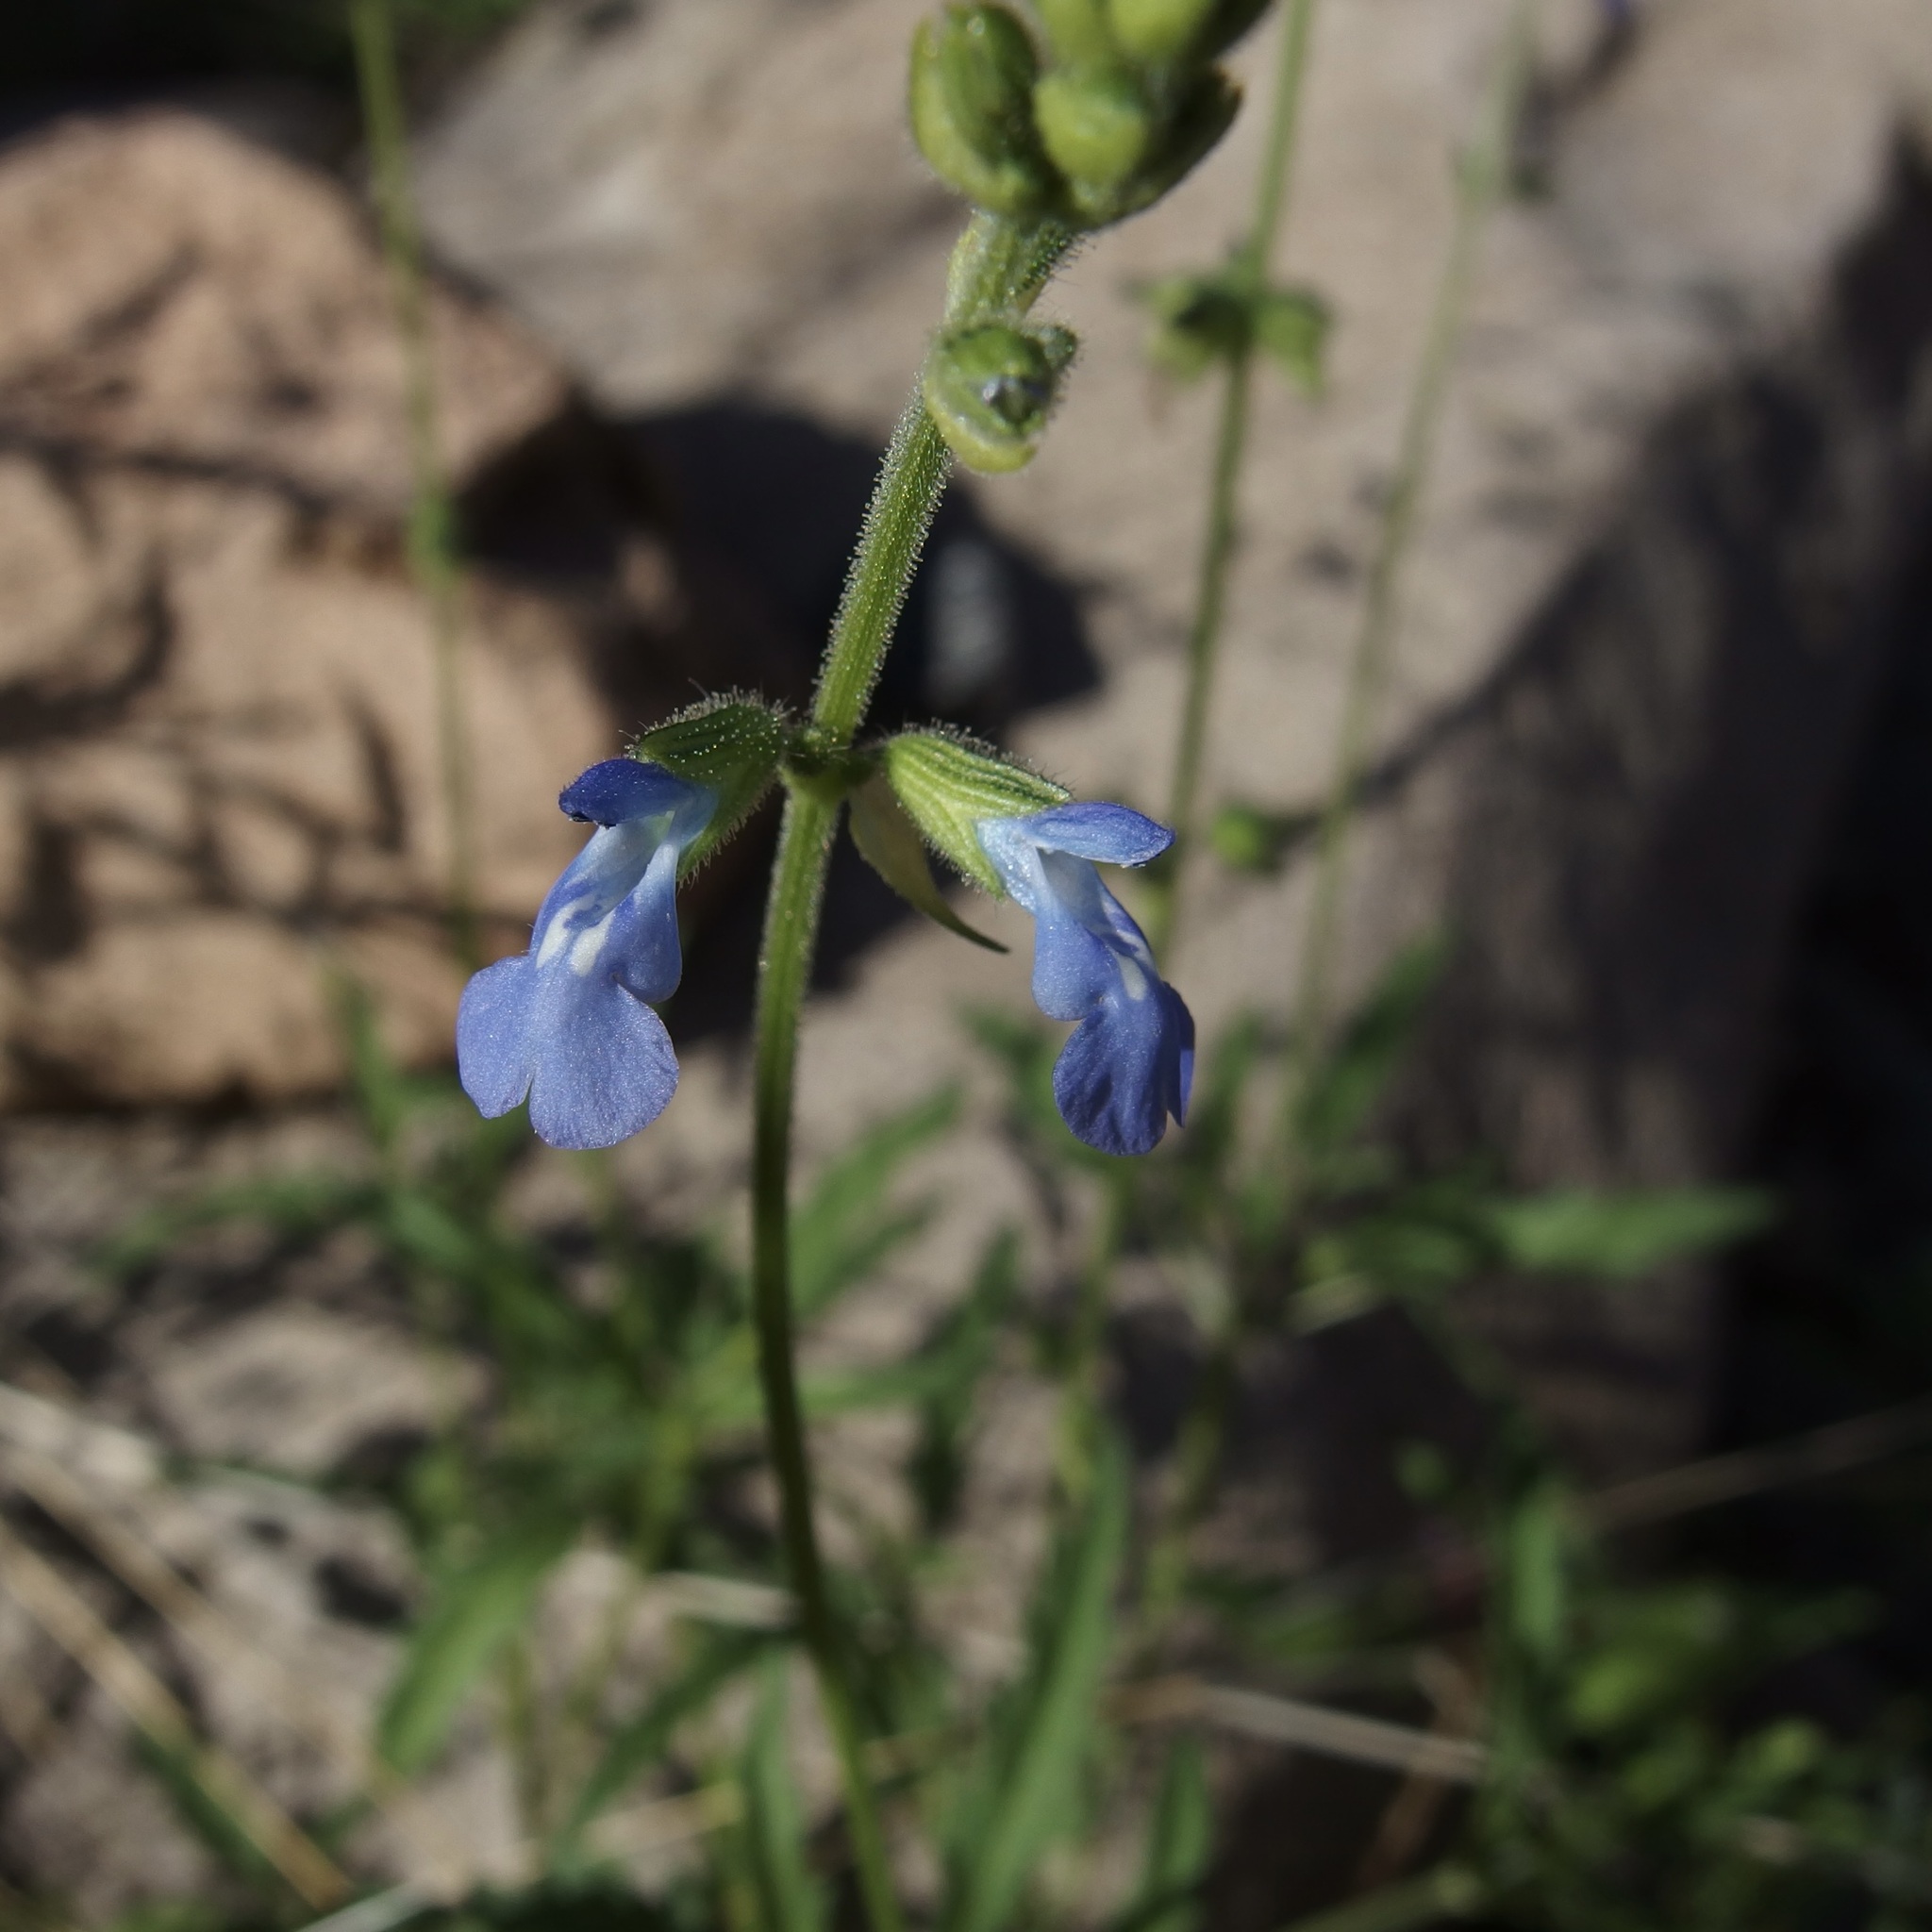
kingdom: Plantae
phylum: Tracheophyta
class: Magnoliopsida
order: Lamiales
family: Lamiaceae
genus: Salvia
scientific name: Salvia subincisa
